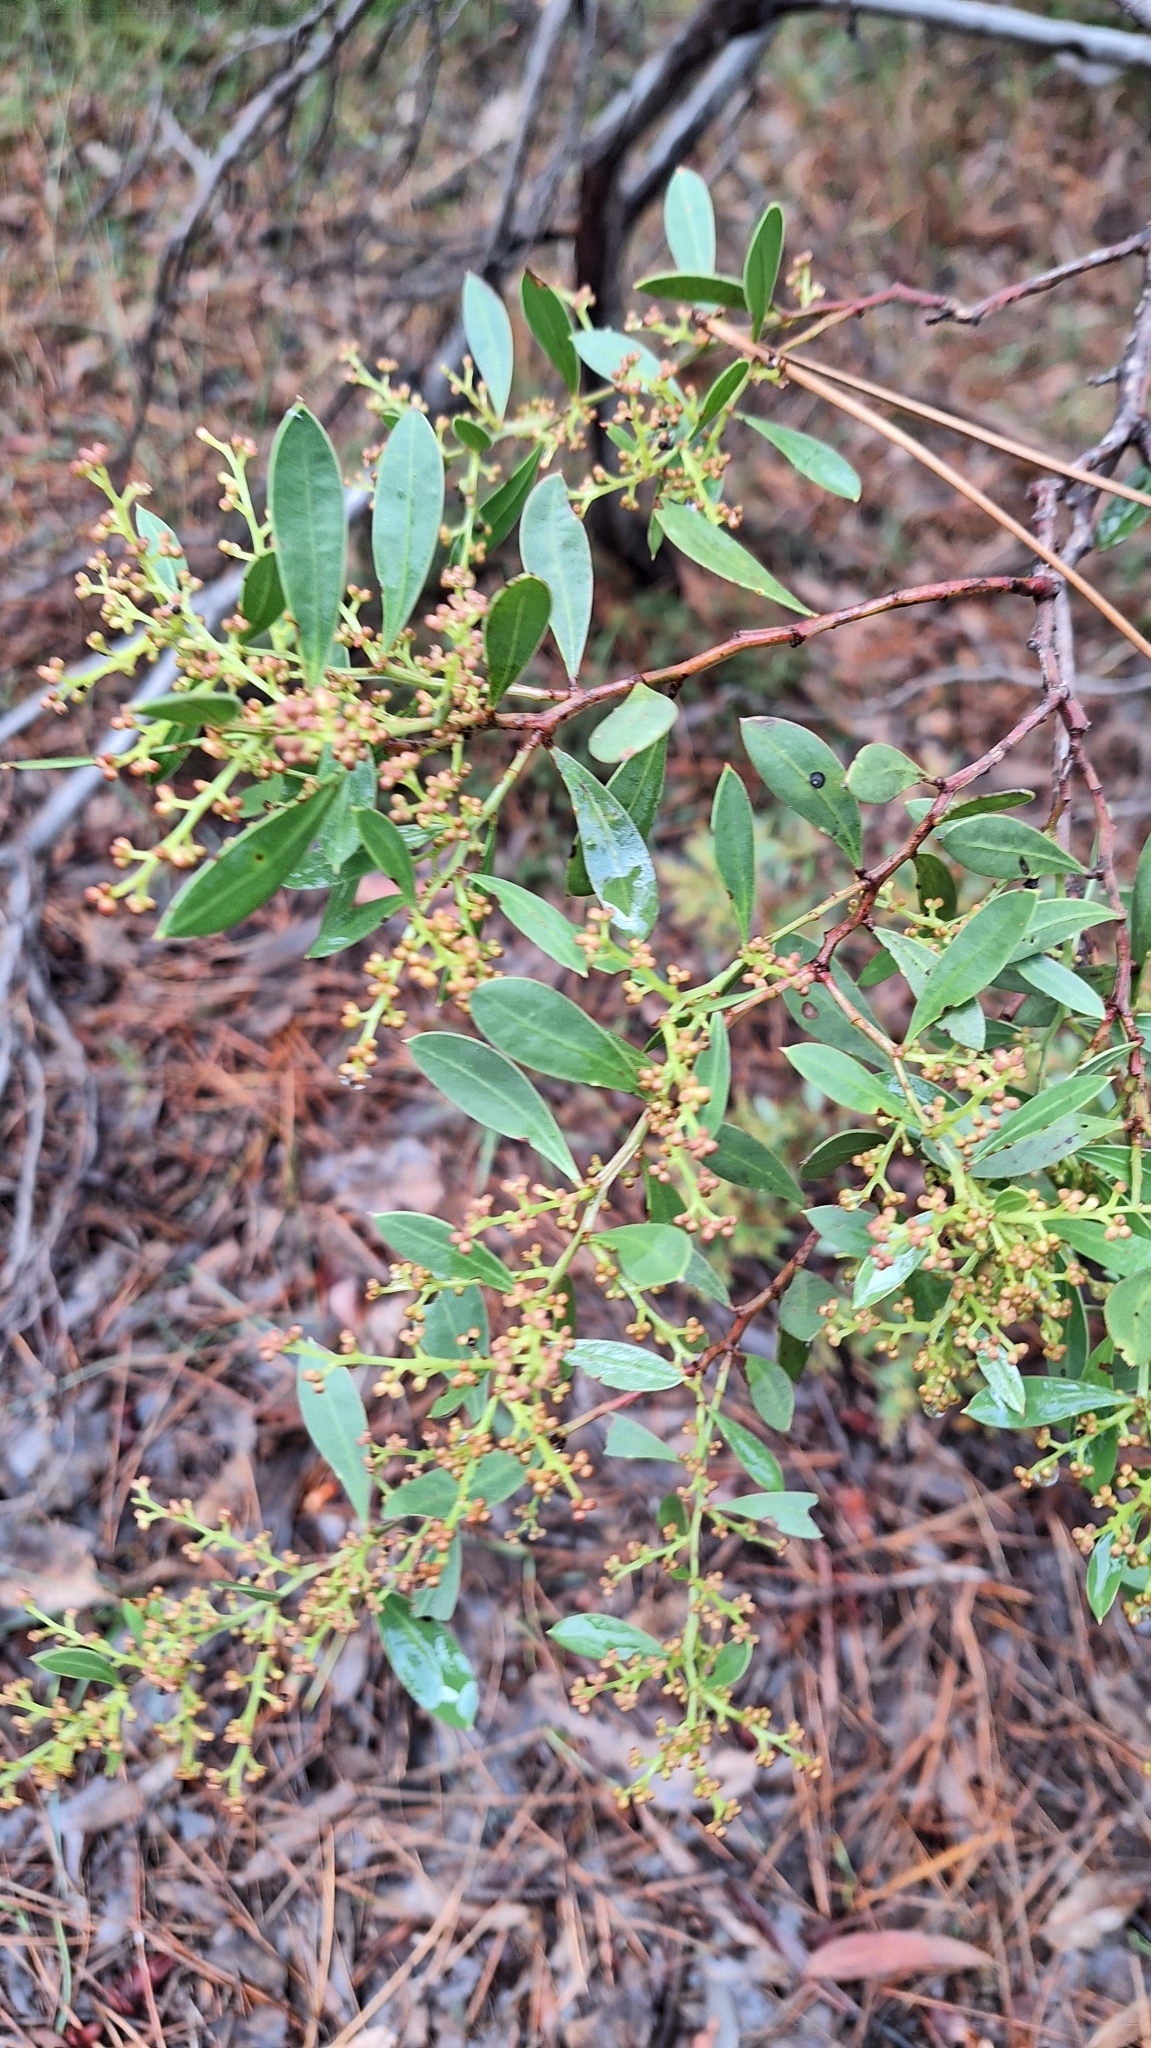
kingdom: Plantae
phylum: Tracheophyta
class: Magnoliopsida
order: Fabales
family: Fabaceae
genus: Acacia
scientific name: Acacia myrtifolia
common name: Myrtle wattle
